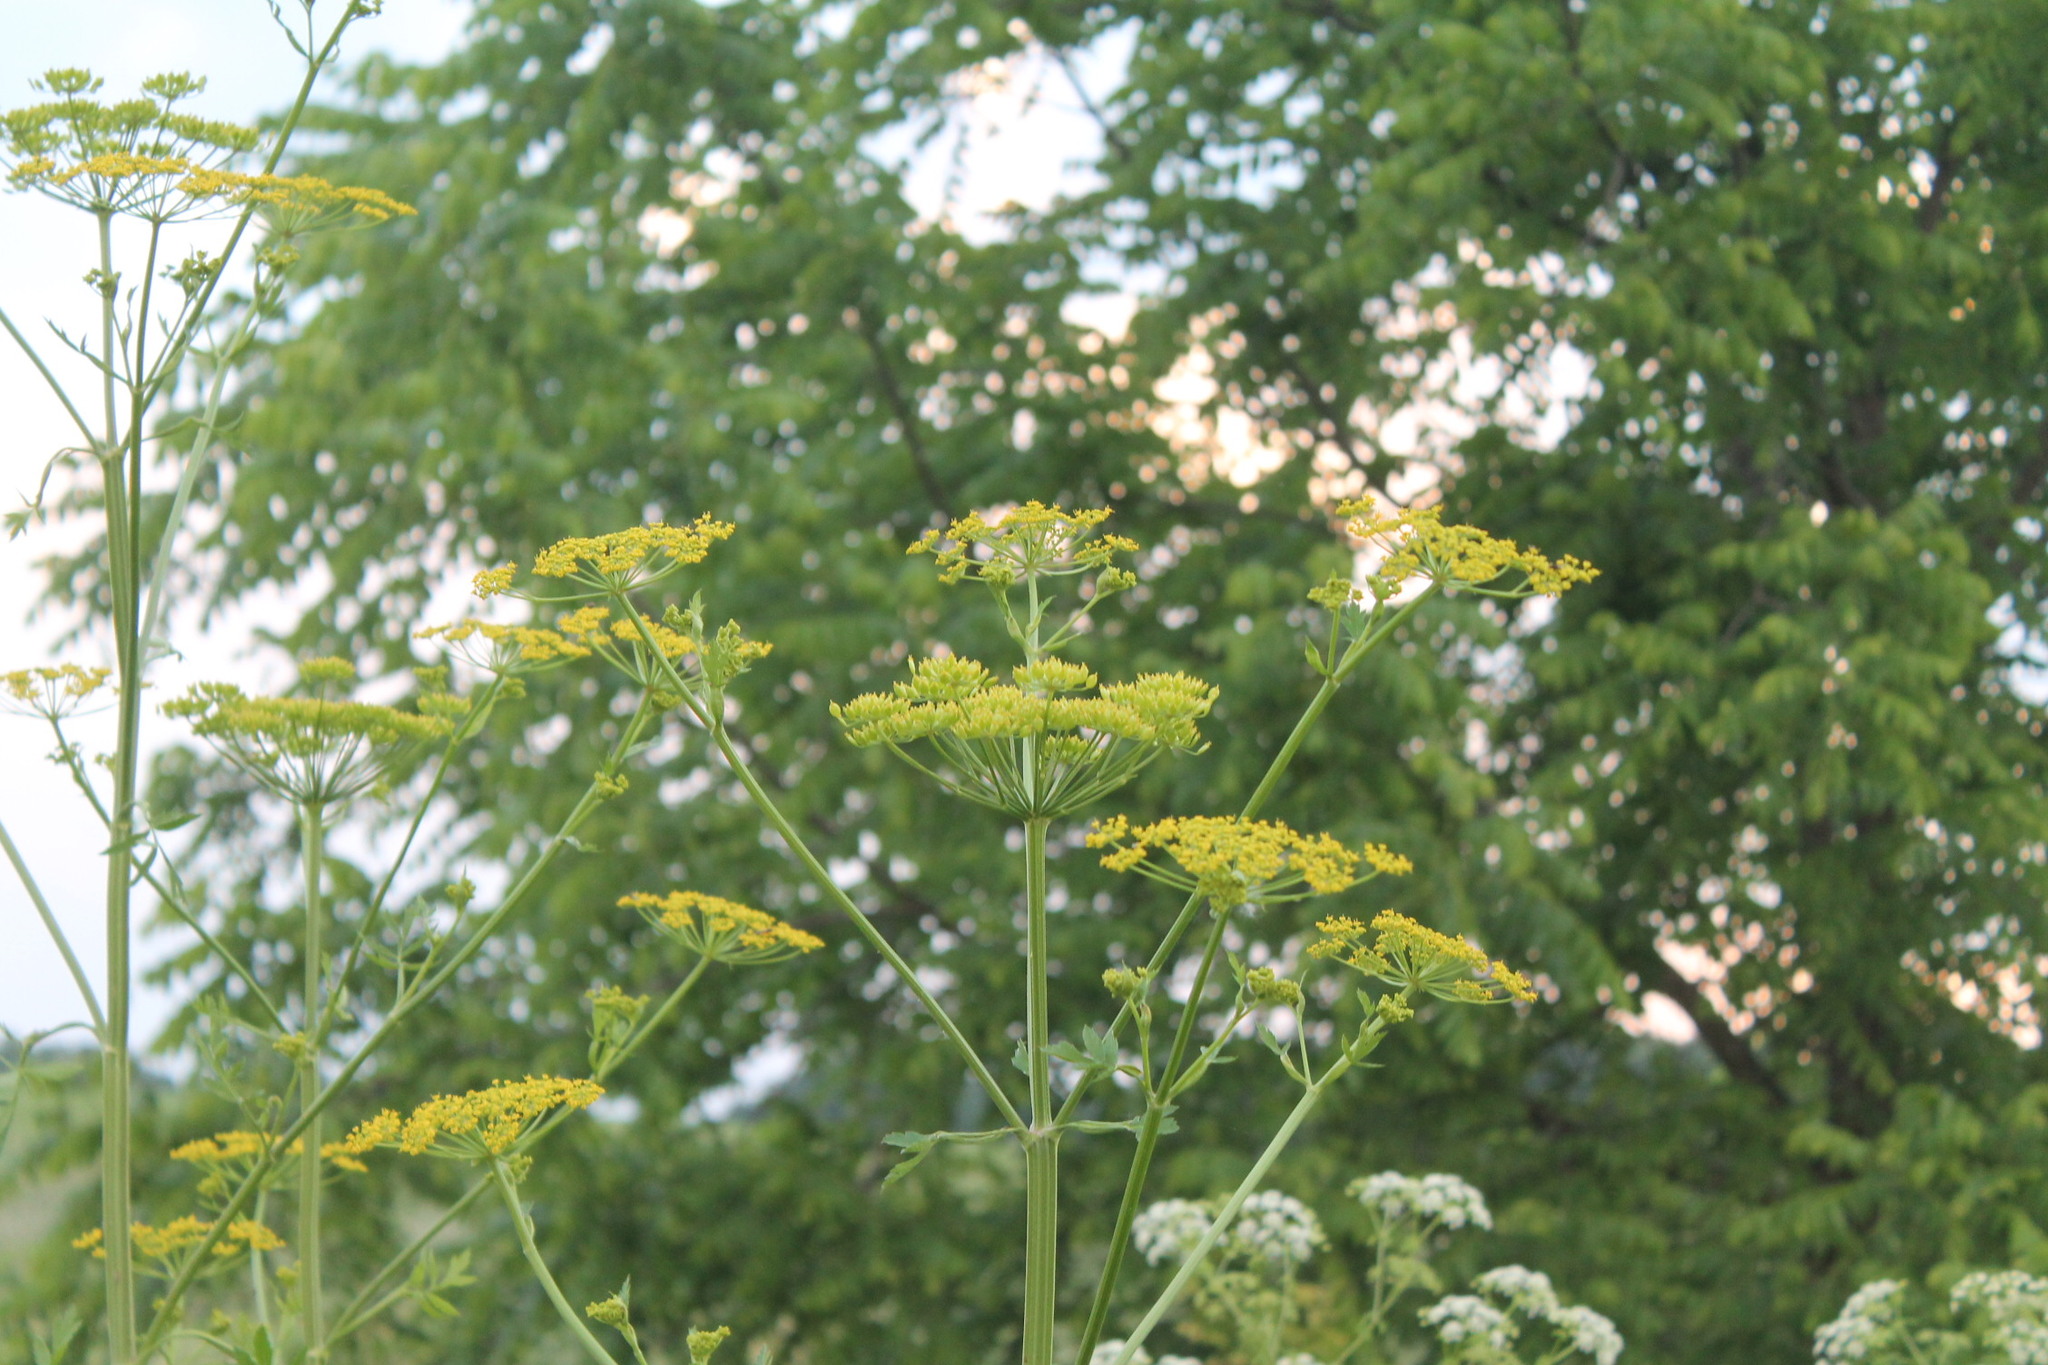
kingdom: Plantae
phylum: Tracheophyta
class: Magnoliopsida
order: Apiales
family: Apiaceae
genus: Pastinaca
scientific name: Pastinaca sativa
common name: Wild parsnip
